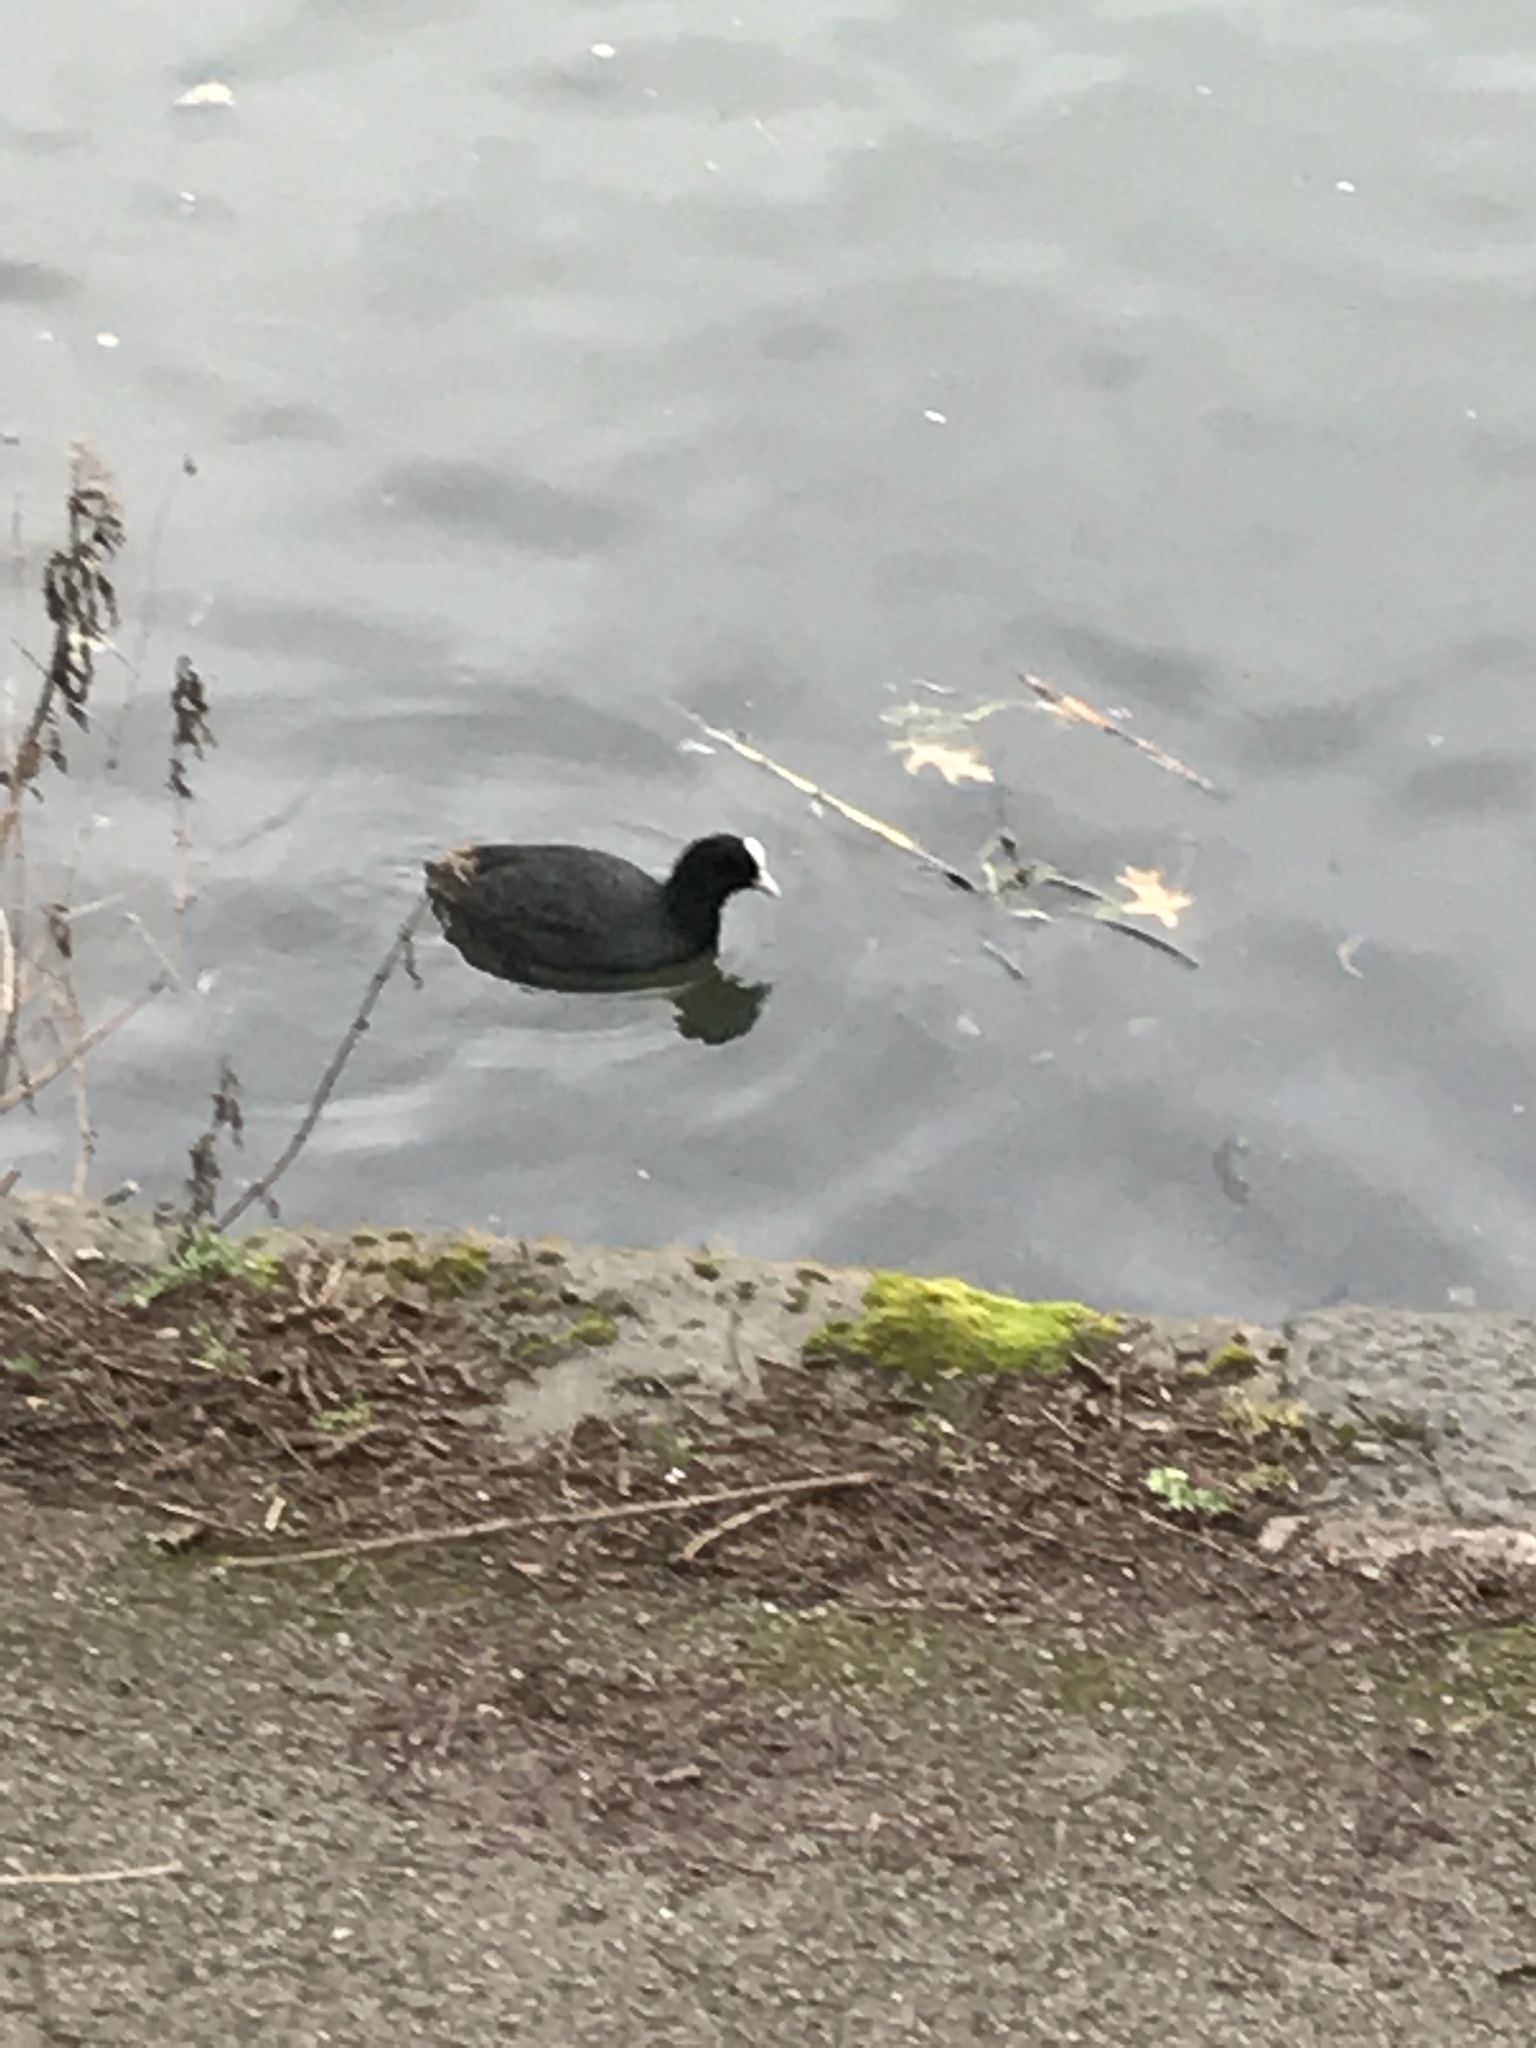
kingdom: Animalia
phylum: Chordata
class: Aves
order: Gruiformes
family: Rallidae
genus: Fulica
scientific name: Fulica atra
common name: Eurasian coot
